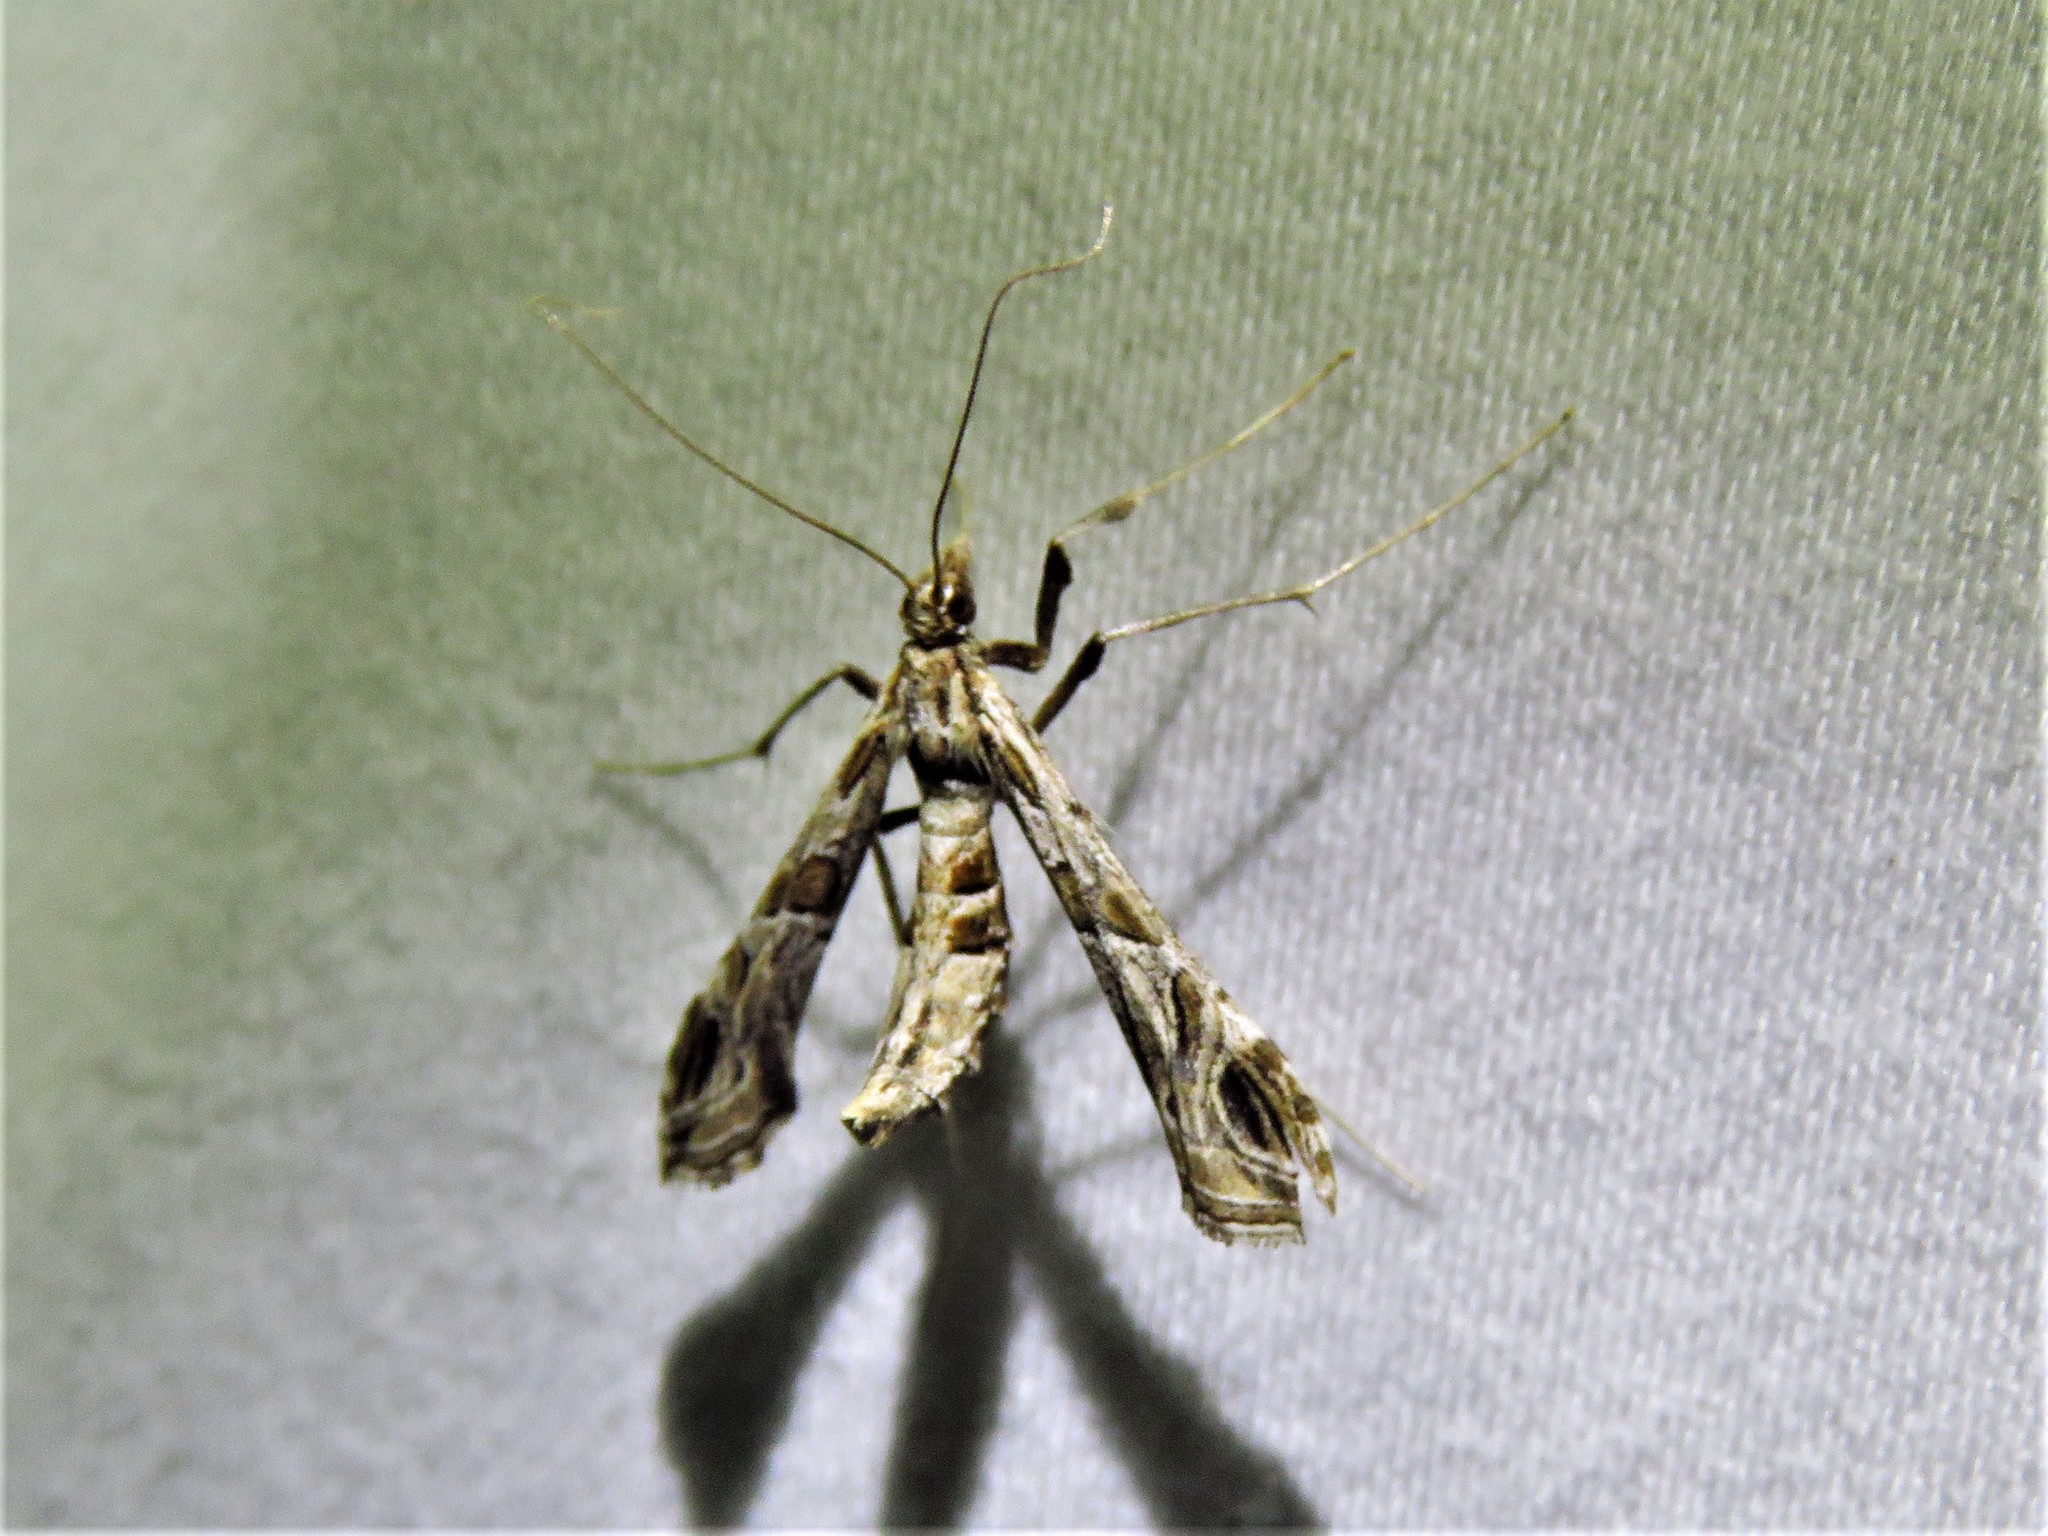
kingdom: Animalia
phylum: Arthropoda
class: Insecta
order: Lepidoptera
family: Crambidae
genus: Lineodes
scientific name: Lineodes interrupta
